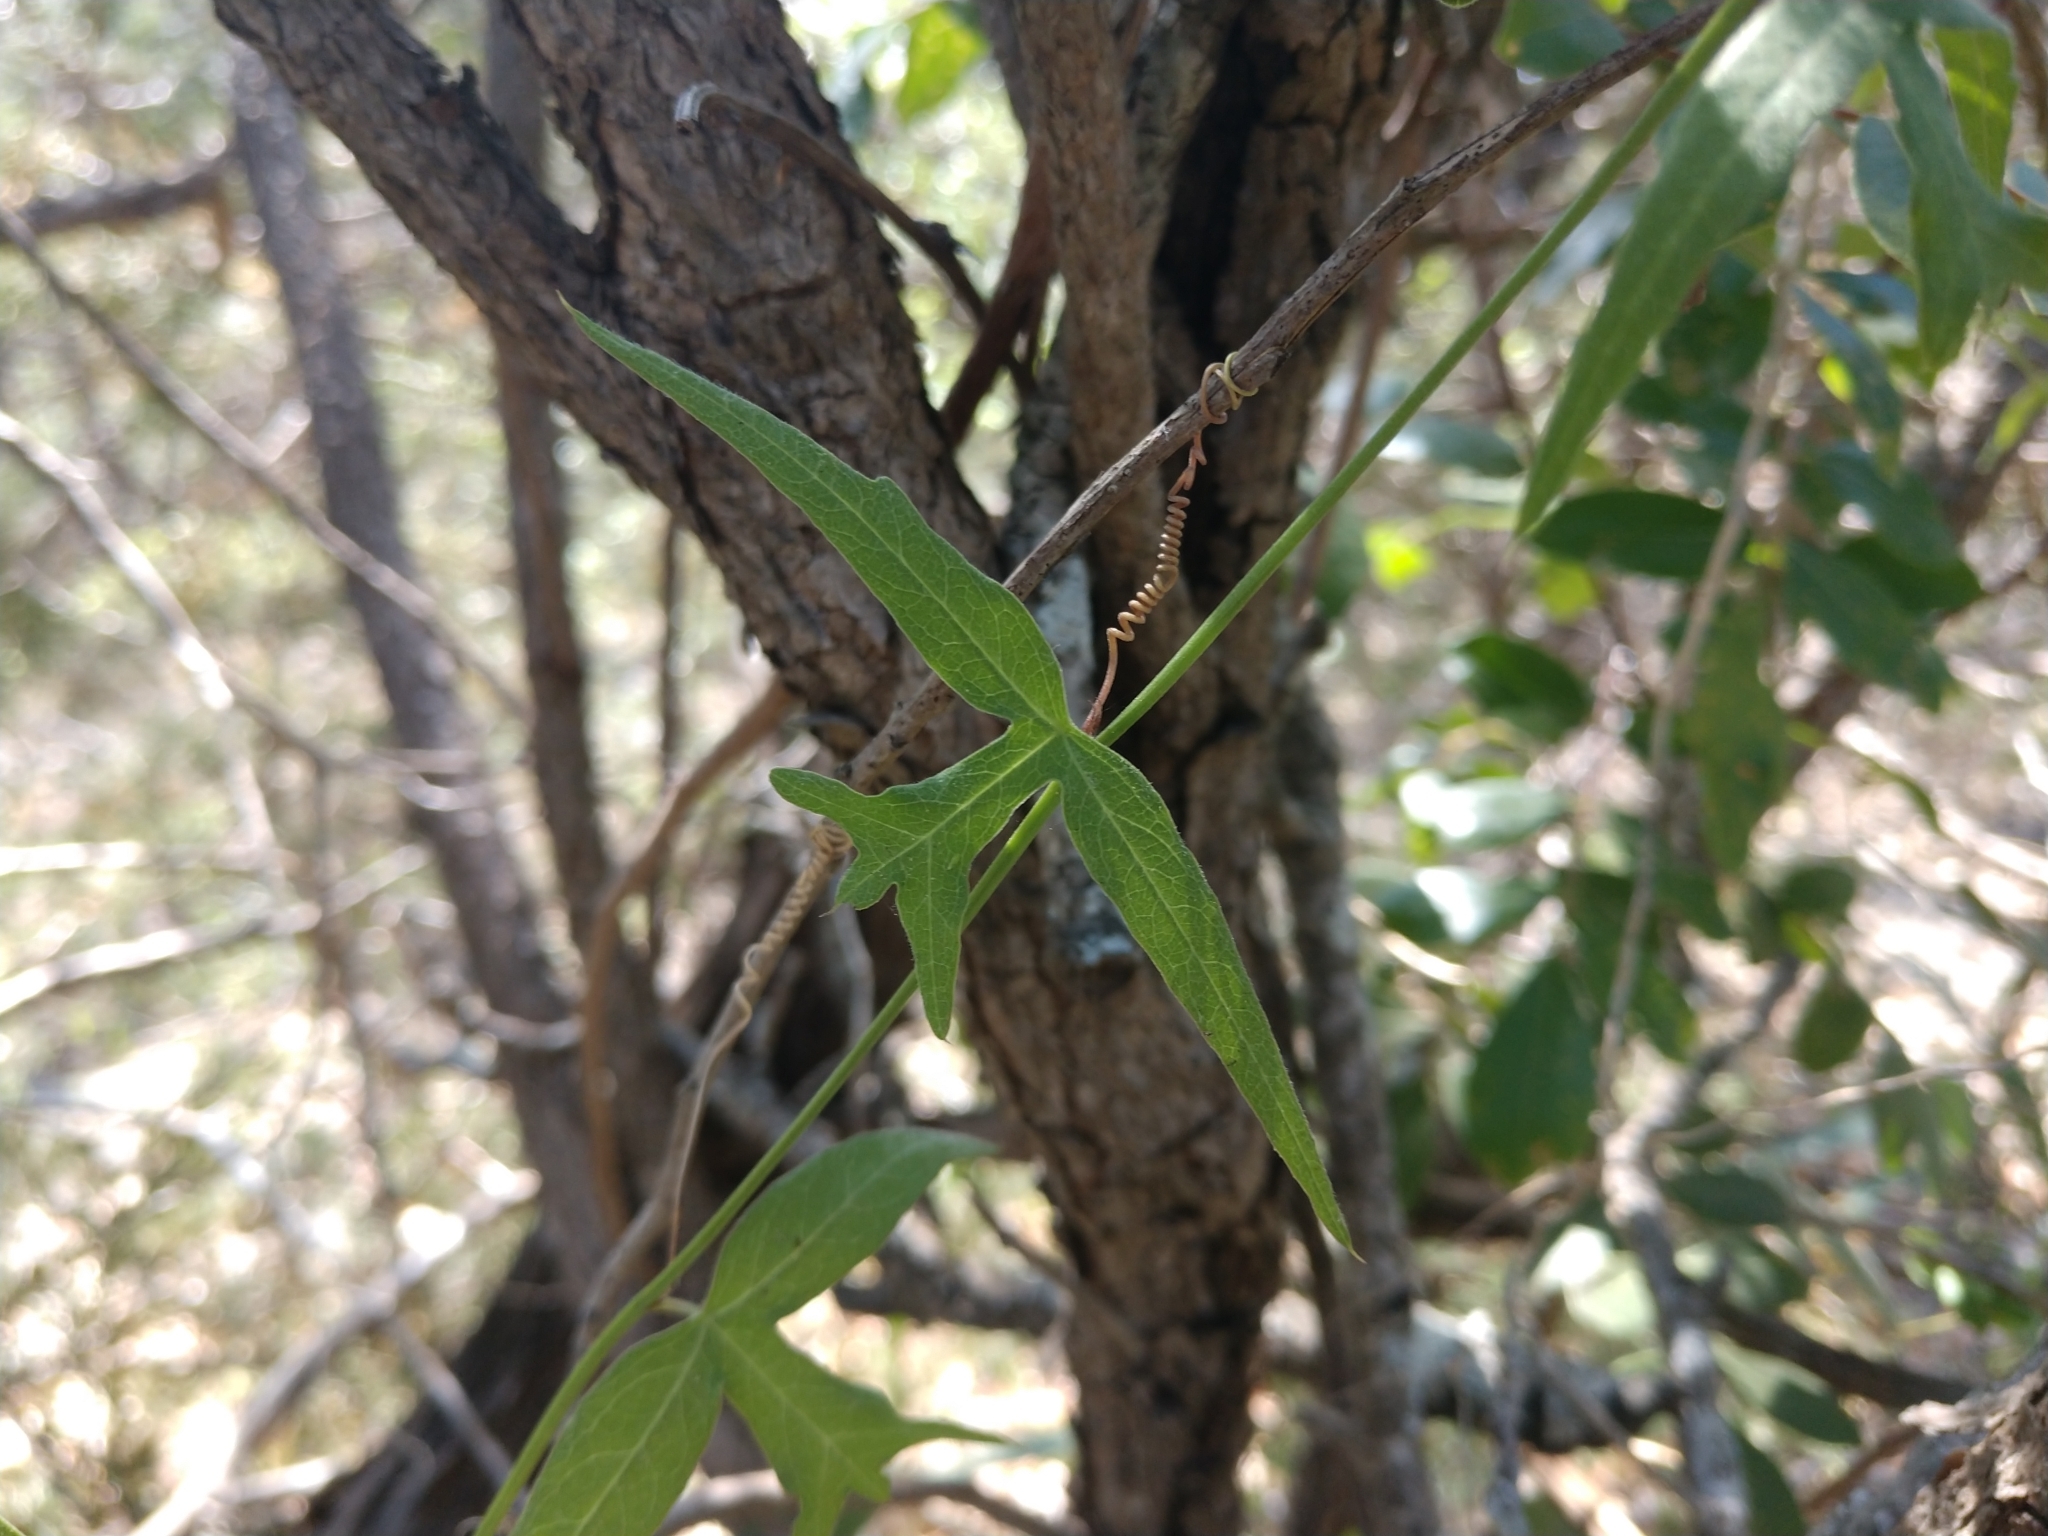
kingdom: Plantae
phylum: Tracheophyta
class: Magnoliopsida
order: Malpighiales
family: Passifloraceae
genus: Passiflora
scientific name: Passiflora tenuiloba
